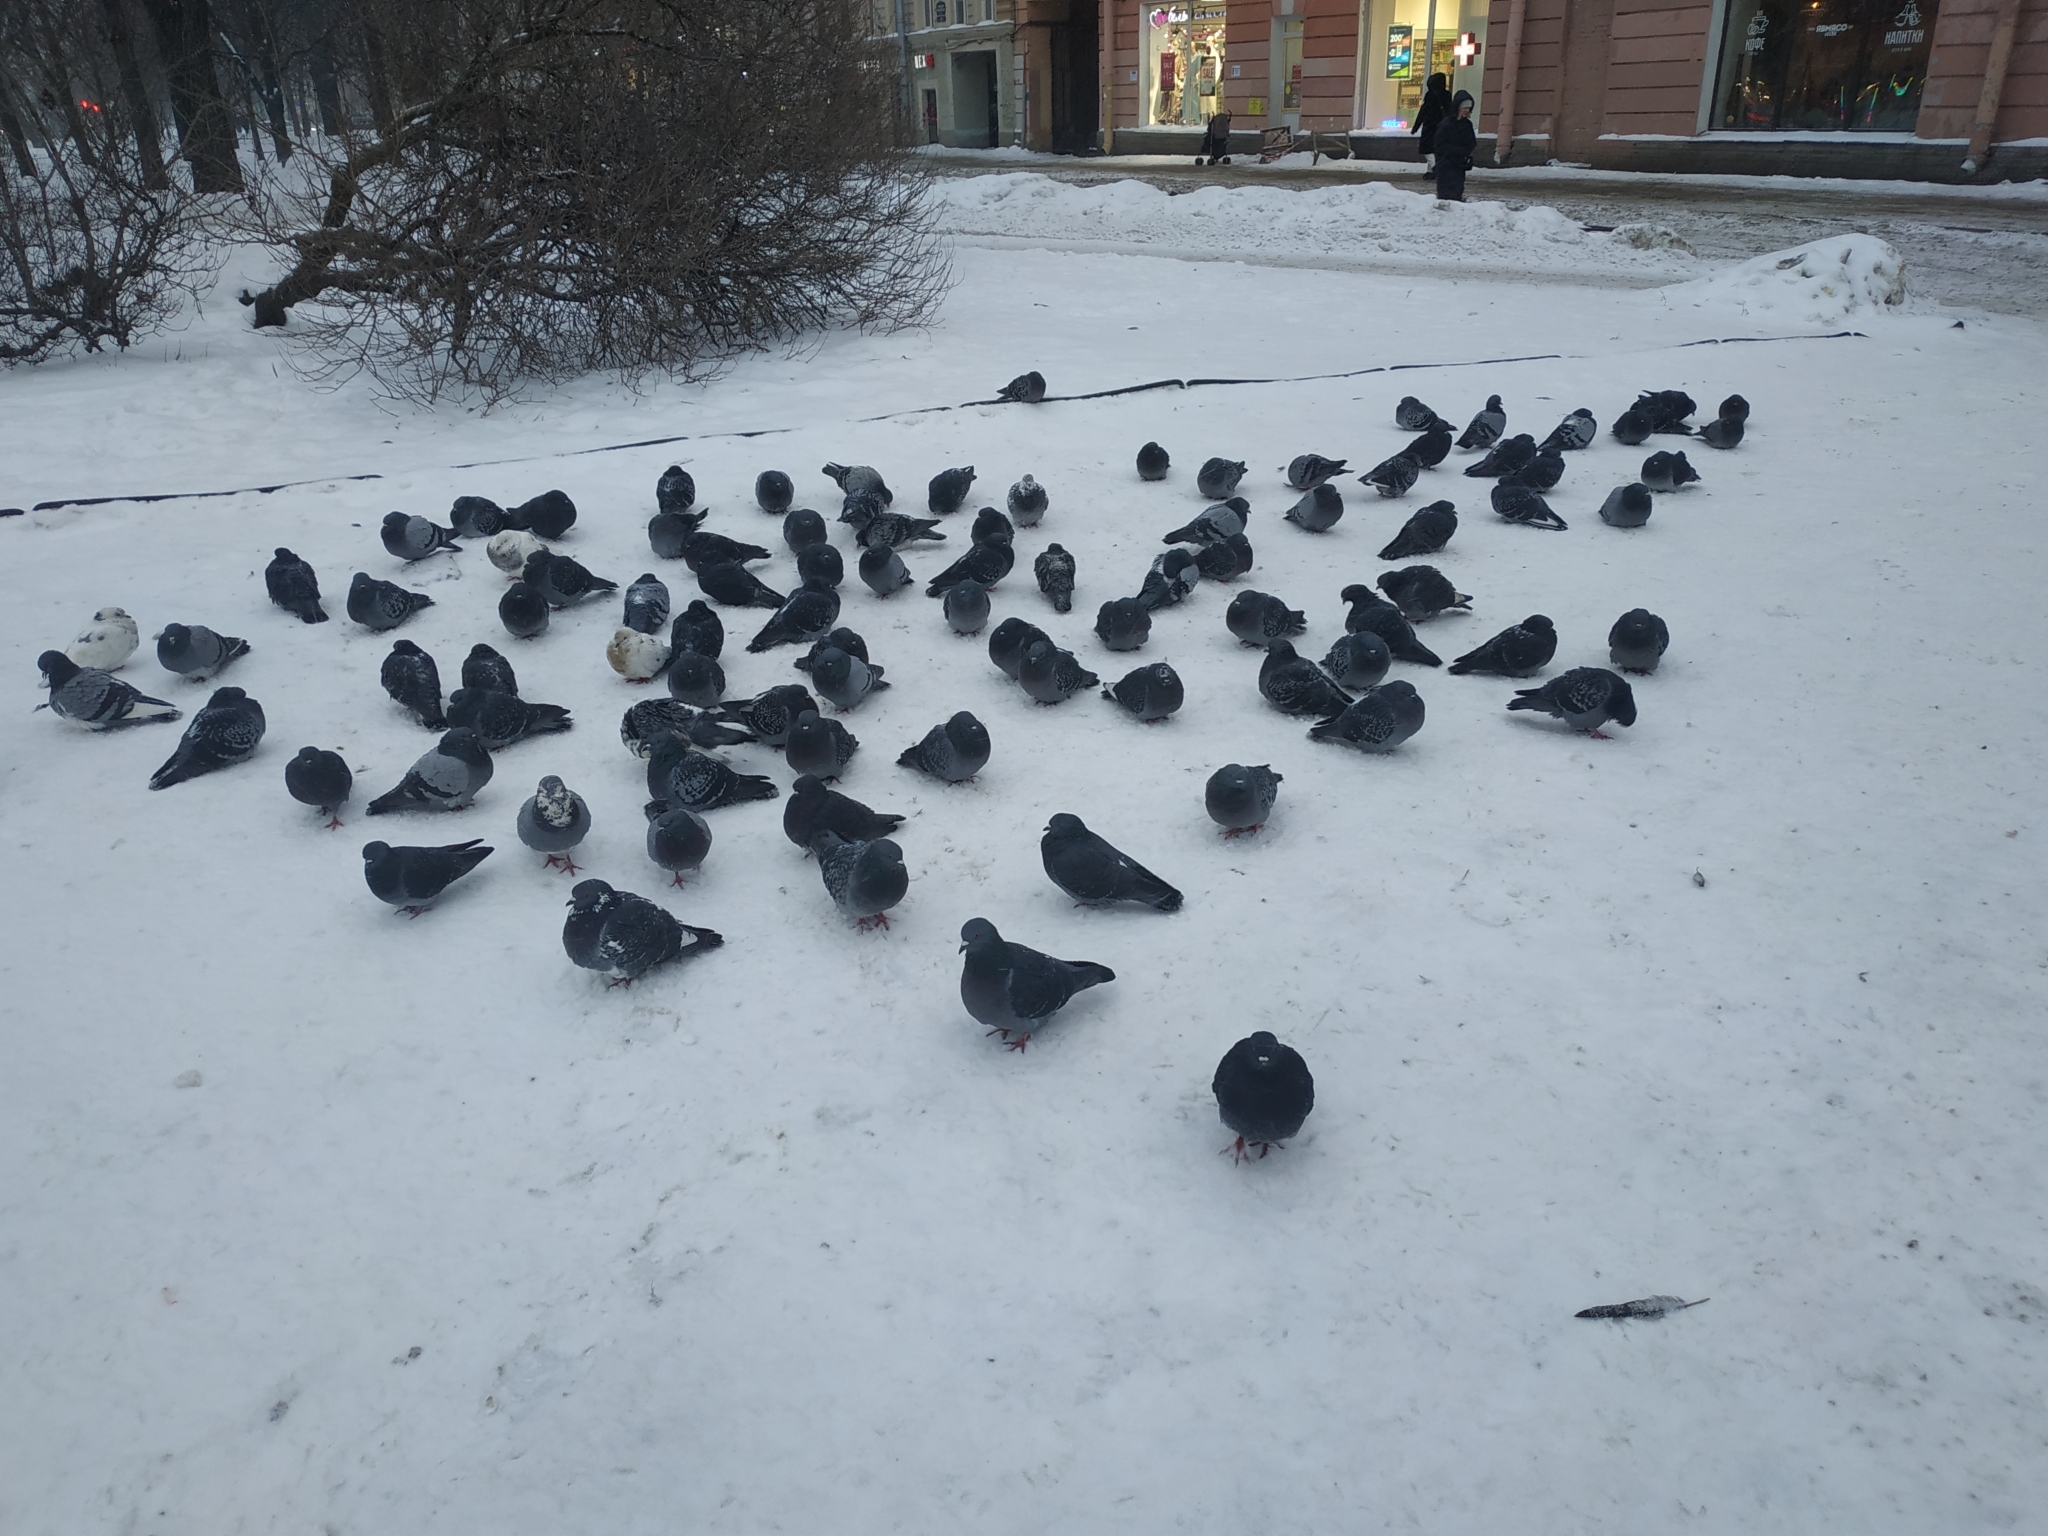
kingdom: Animalia
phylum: Chordata
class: Aves
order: Columbiformes
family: Columbidae
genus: Columba
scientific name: Columba livia
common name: Rock pigeon
